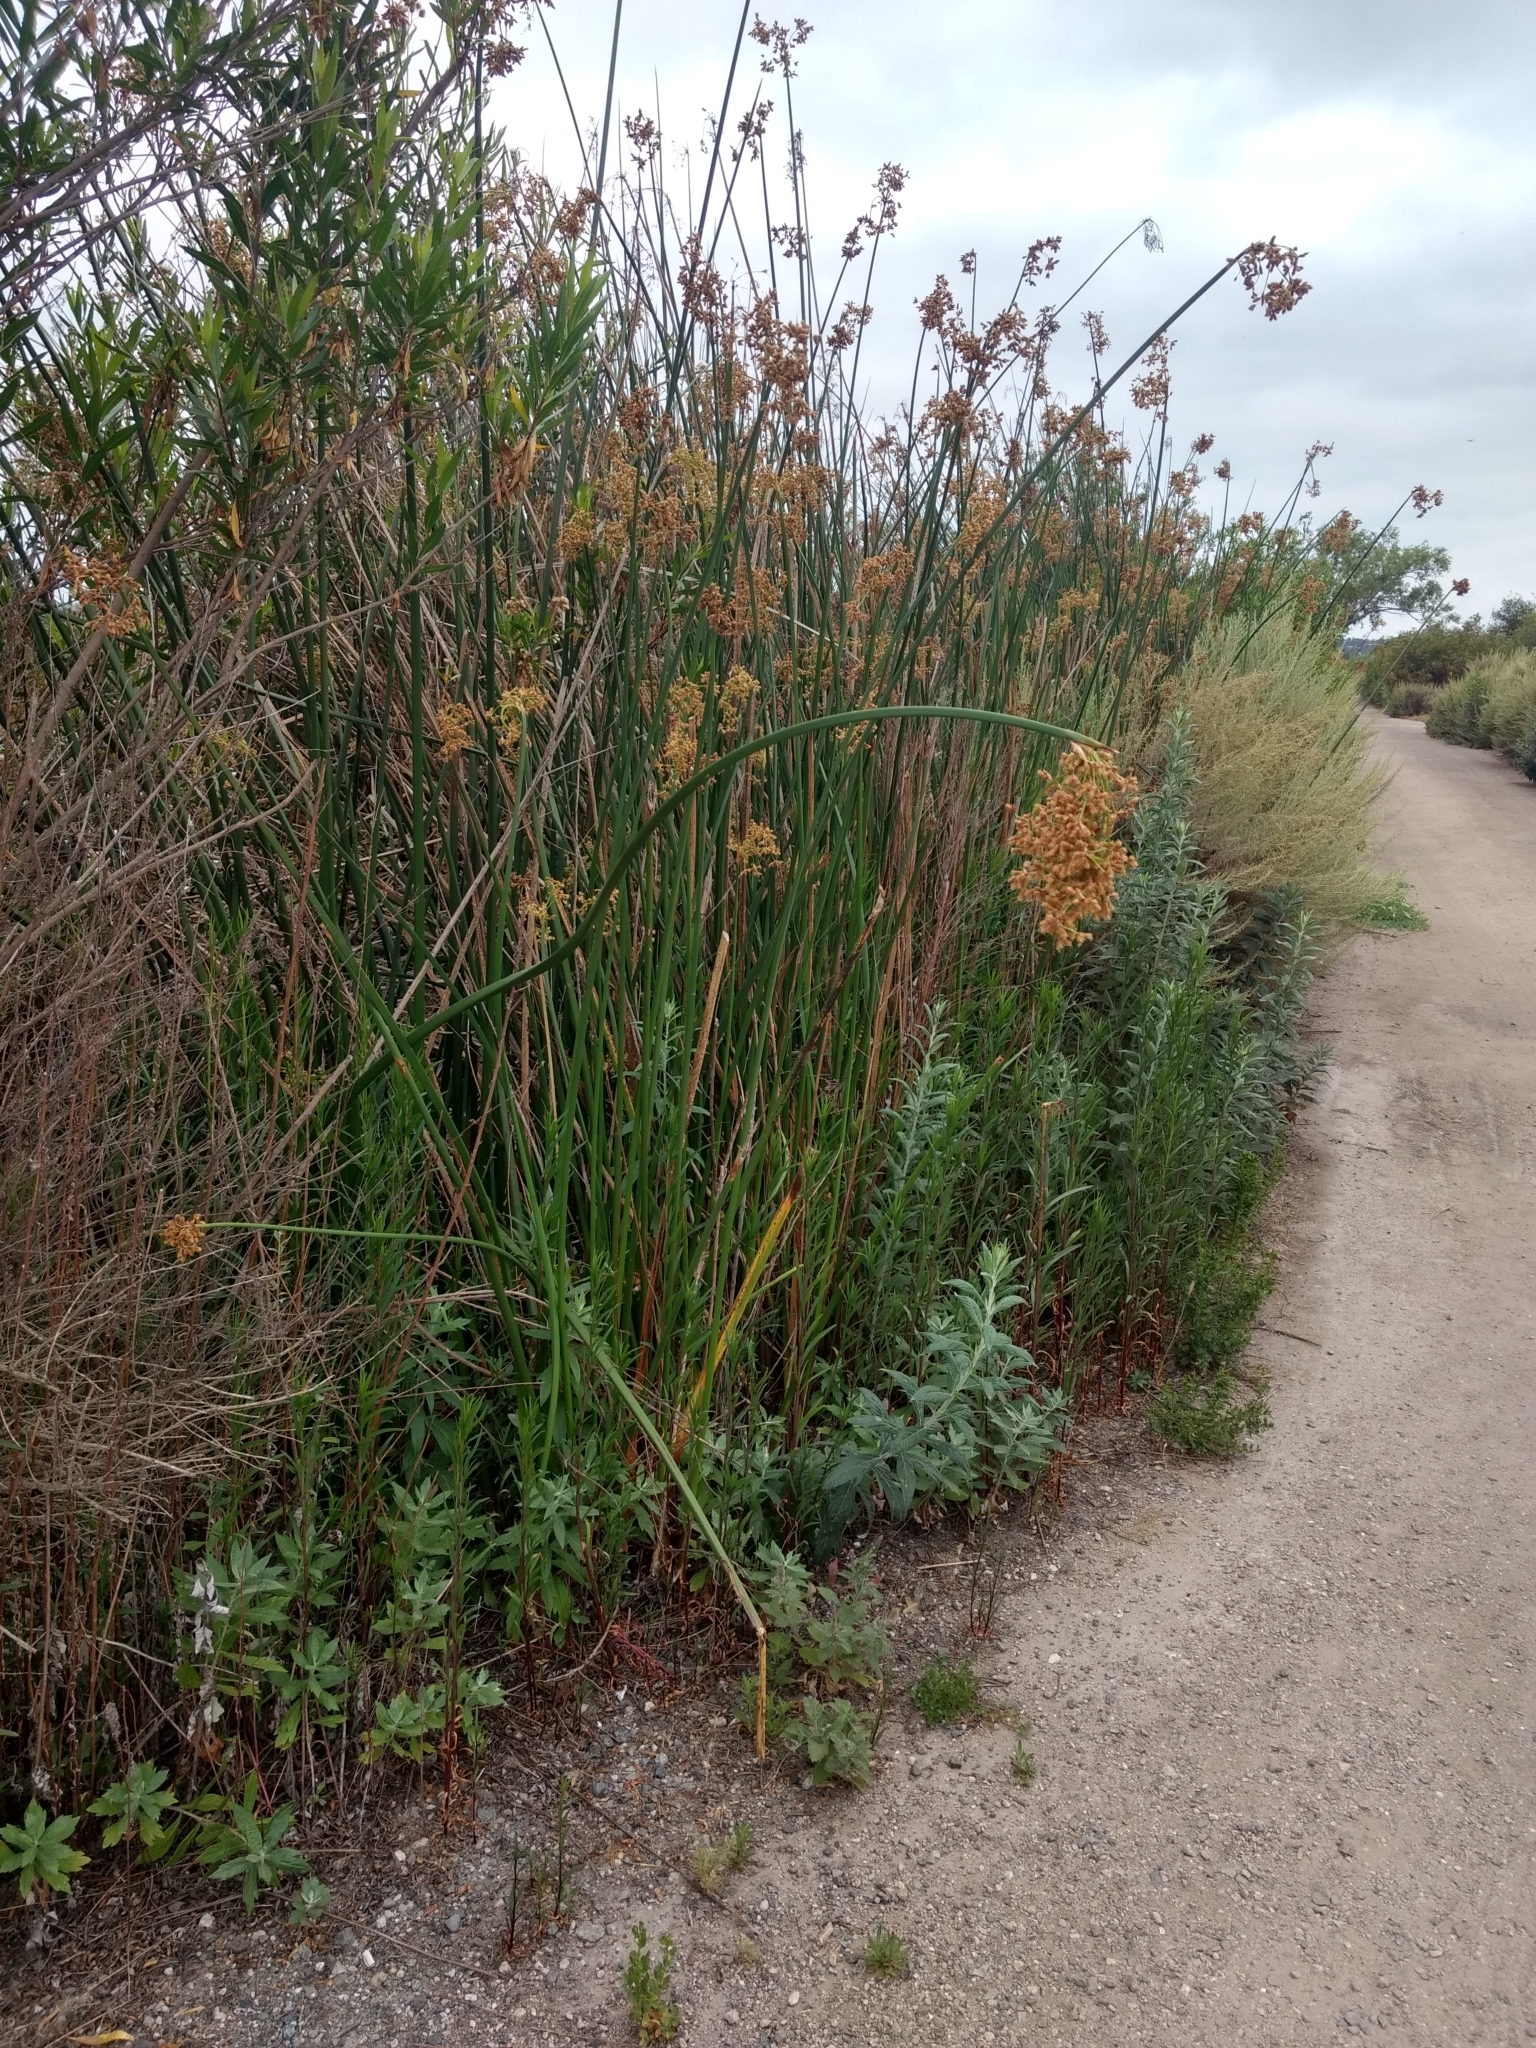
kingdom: Plantae
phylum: Tracheophyta
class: Liliopsida
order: Poales
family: Cyperaceae
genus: Schoenoplectus
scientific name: Schoenoplectus californicus
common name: California bulrush
